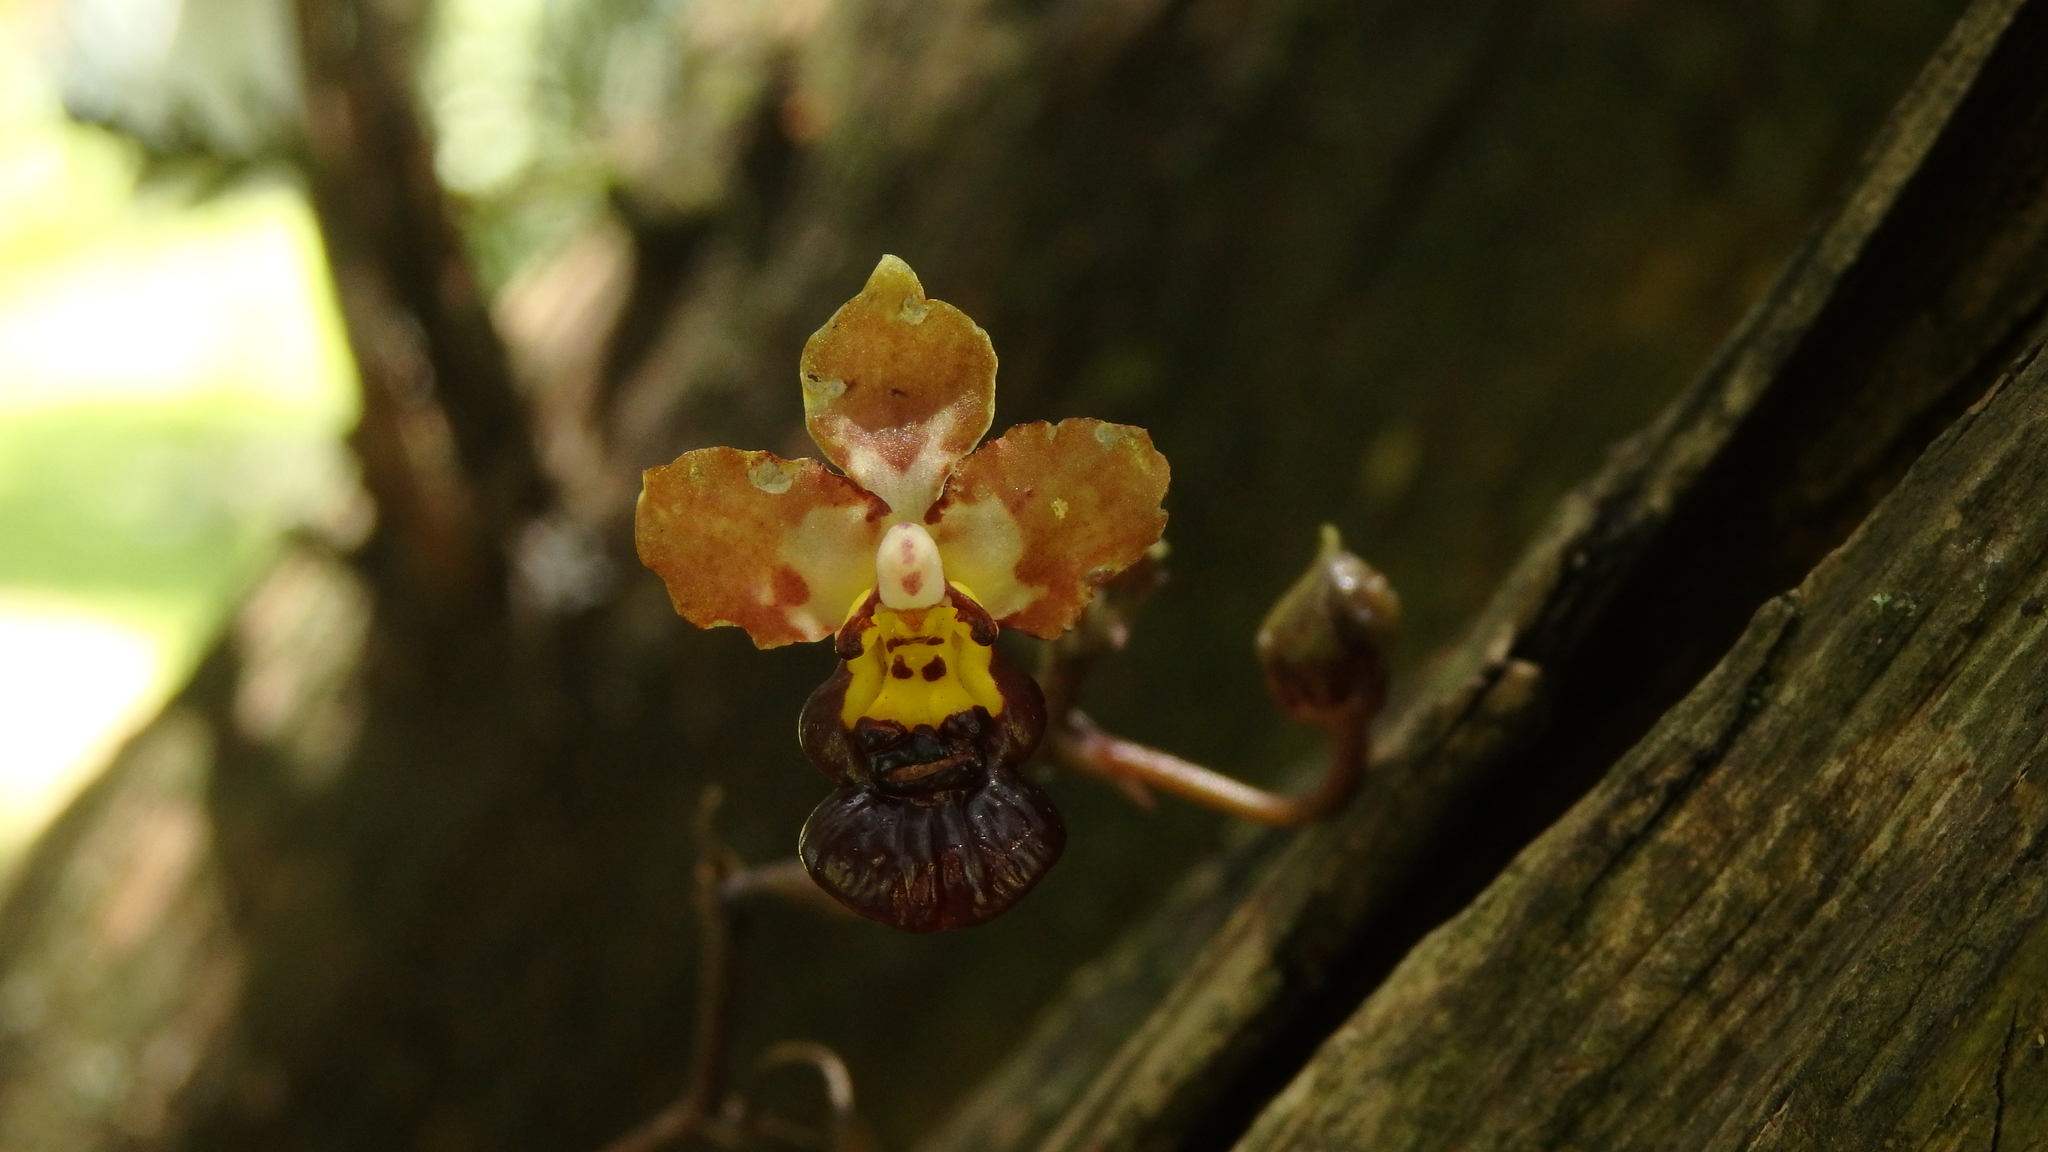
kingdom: Plantae
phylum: Tracheophyta
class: Liliopsida
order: Asparagales
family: Orchidaceae
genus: Trichocentrum
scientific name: Trichocentrum lindenii
